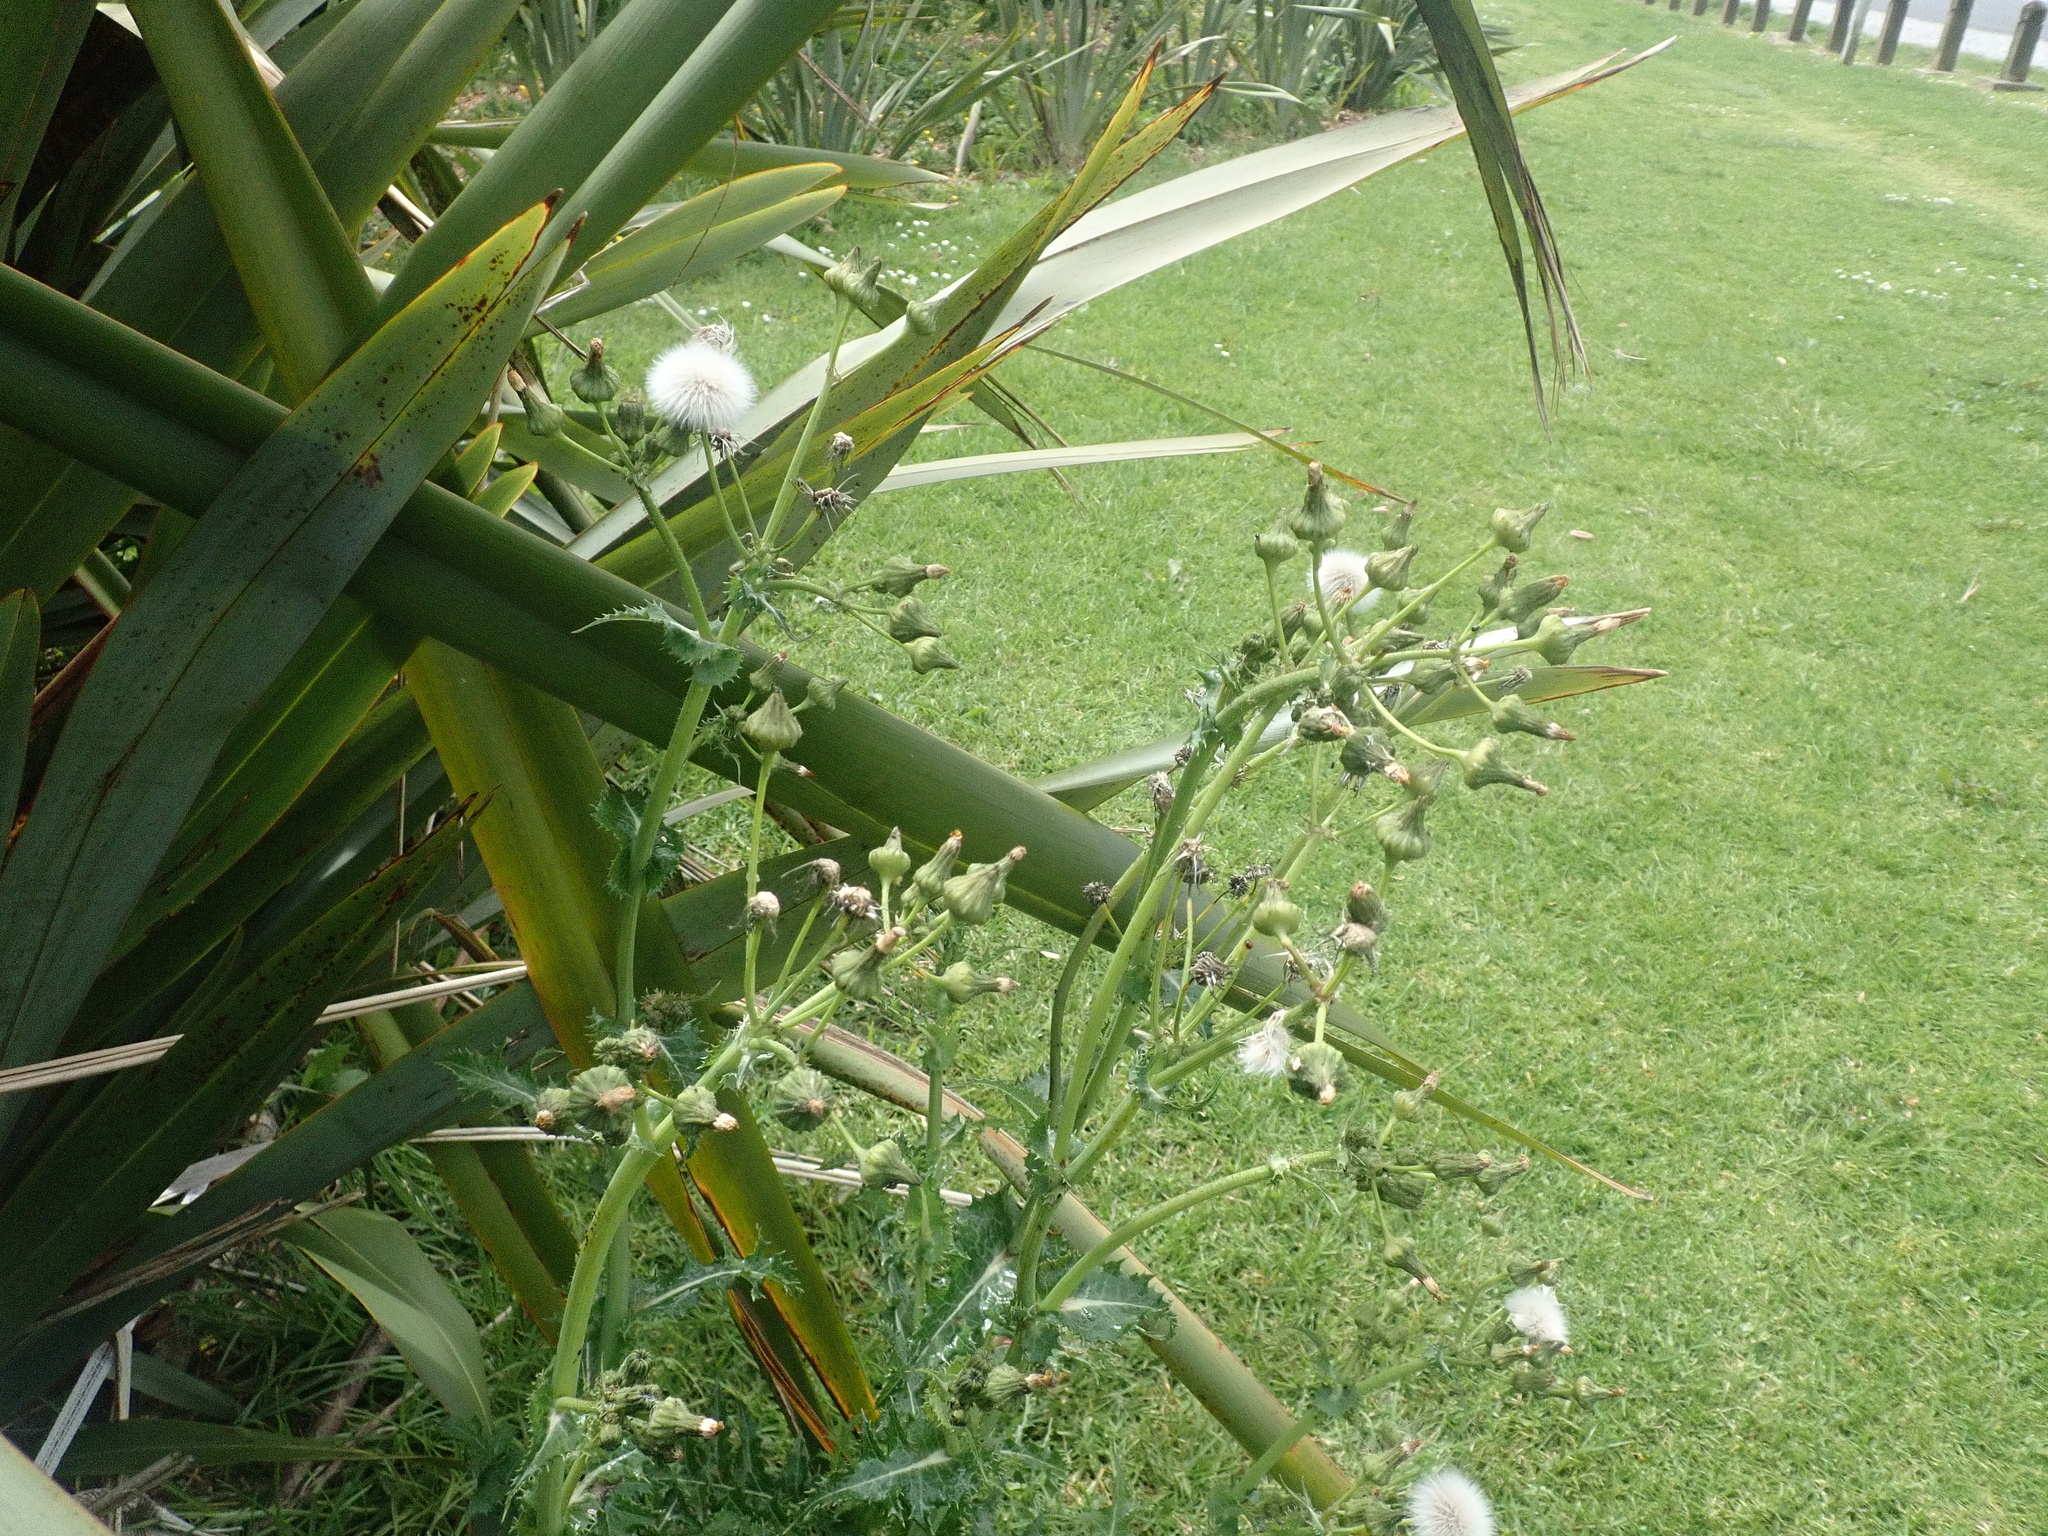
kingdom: Plantae
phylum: Tracheophyta
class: Magnoliopsida
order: Asterales
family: Asteraceae
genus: Sonchus
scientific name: Sonchus asper
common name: Prickly sow-thistle
